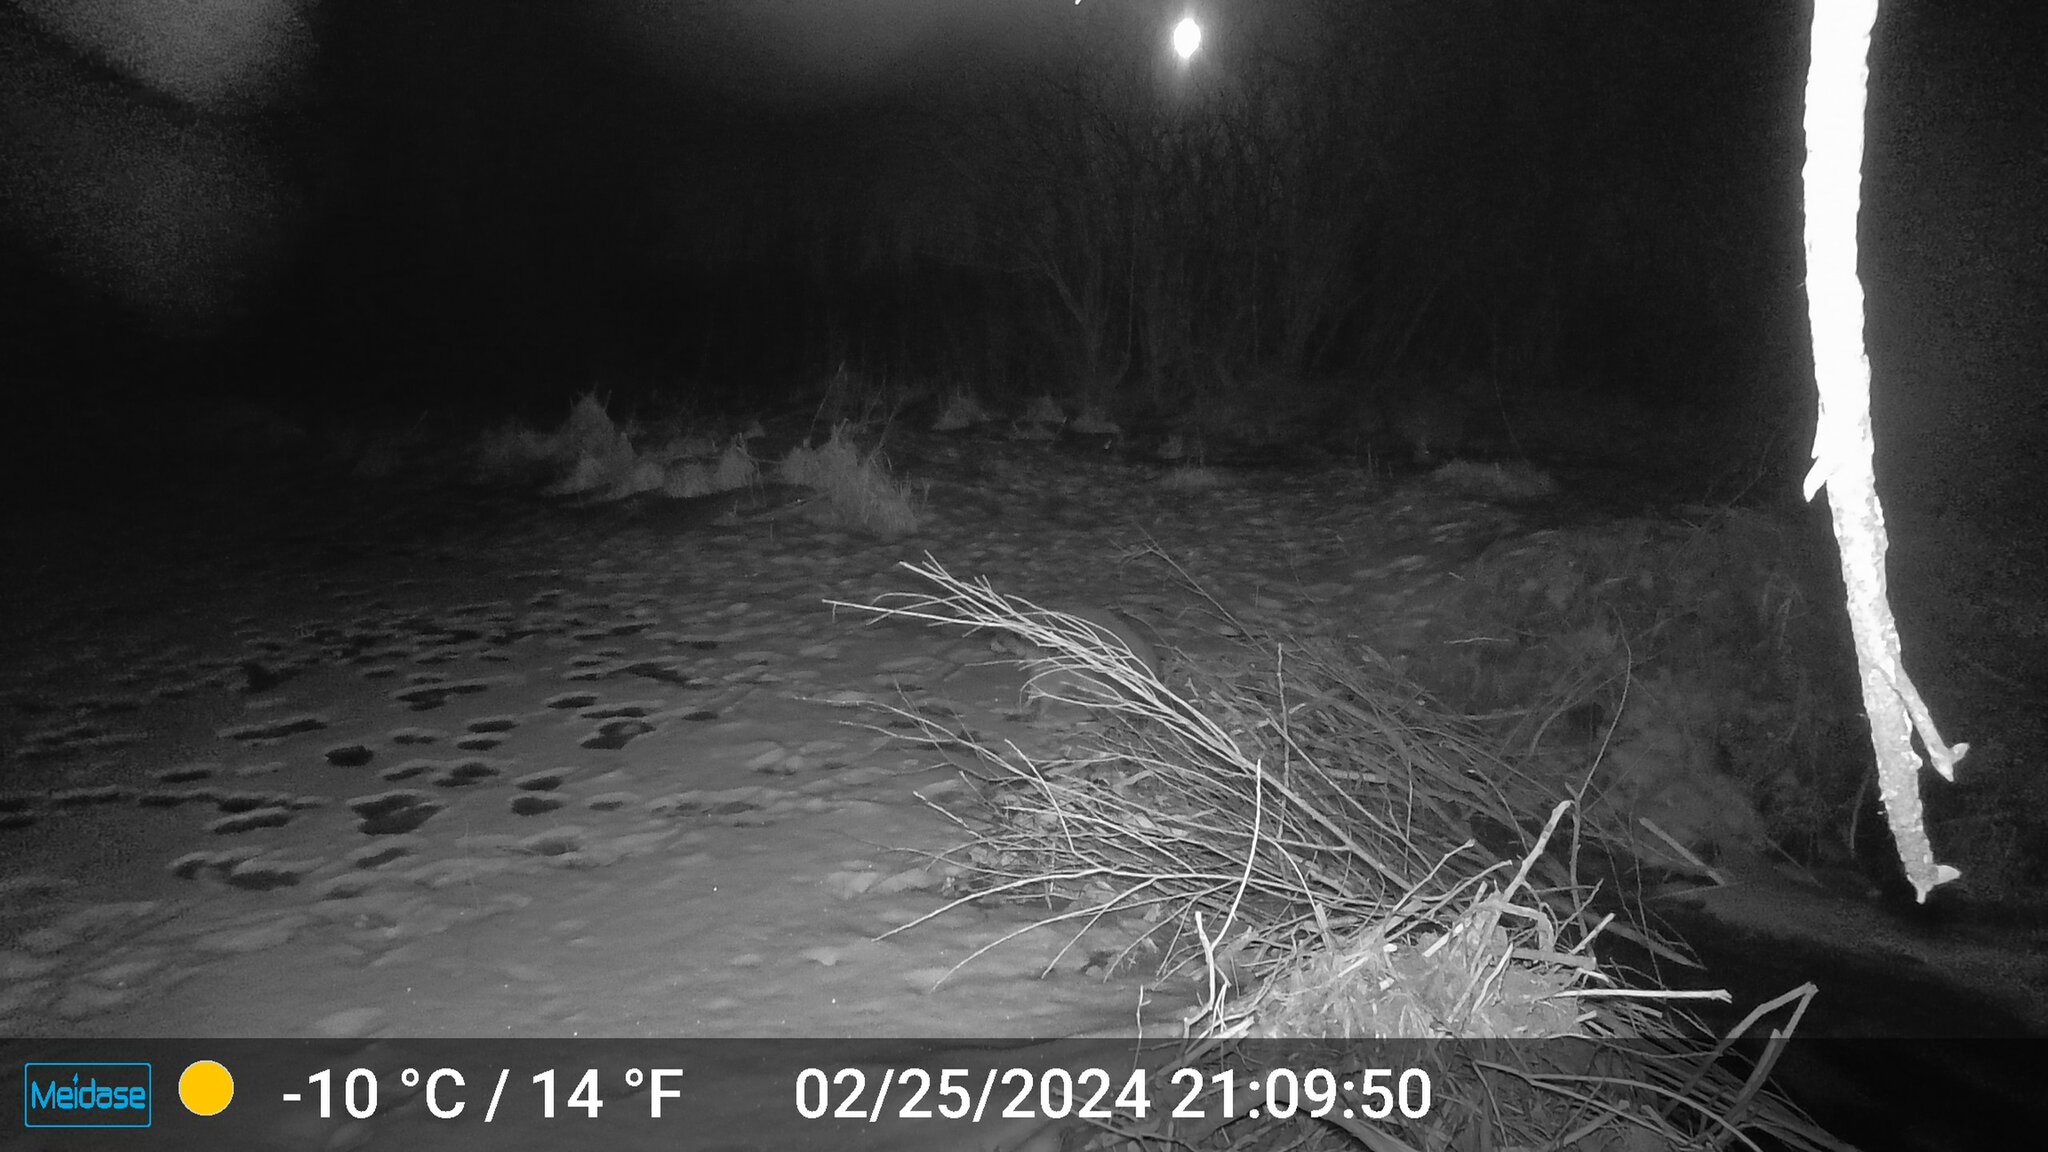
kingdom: Animalia
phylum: Chordata
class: Mammalia
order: Carnivora
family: Procyonidae
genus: Procyon
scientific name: Procyon lotor
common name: Raccoon
